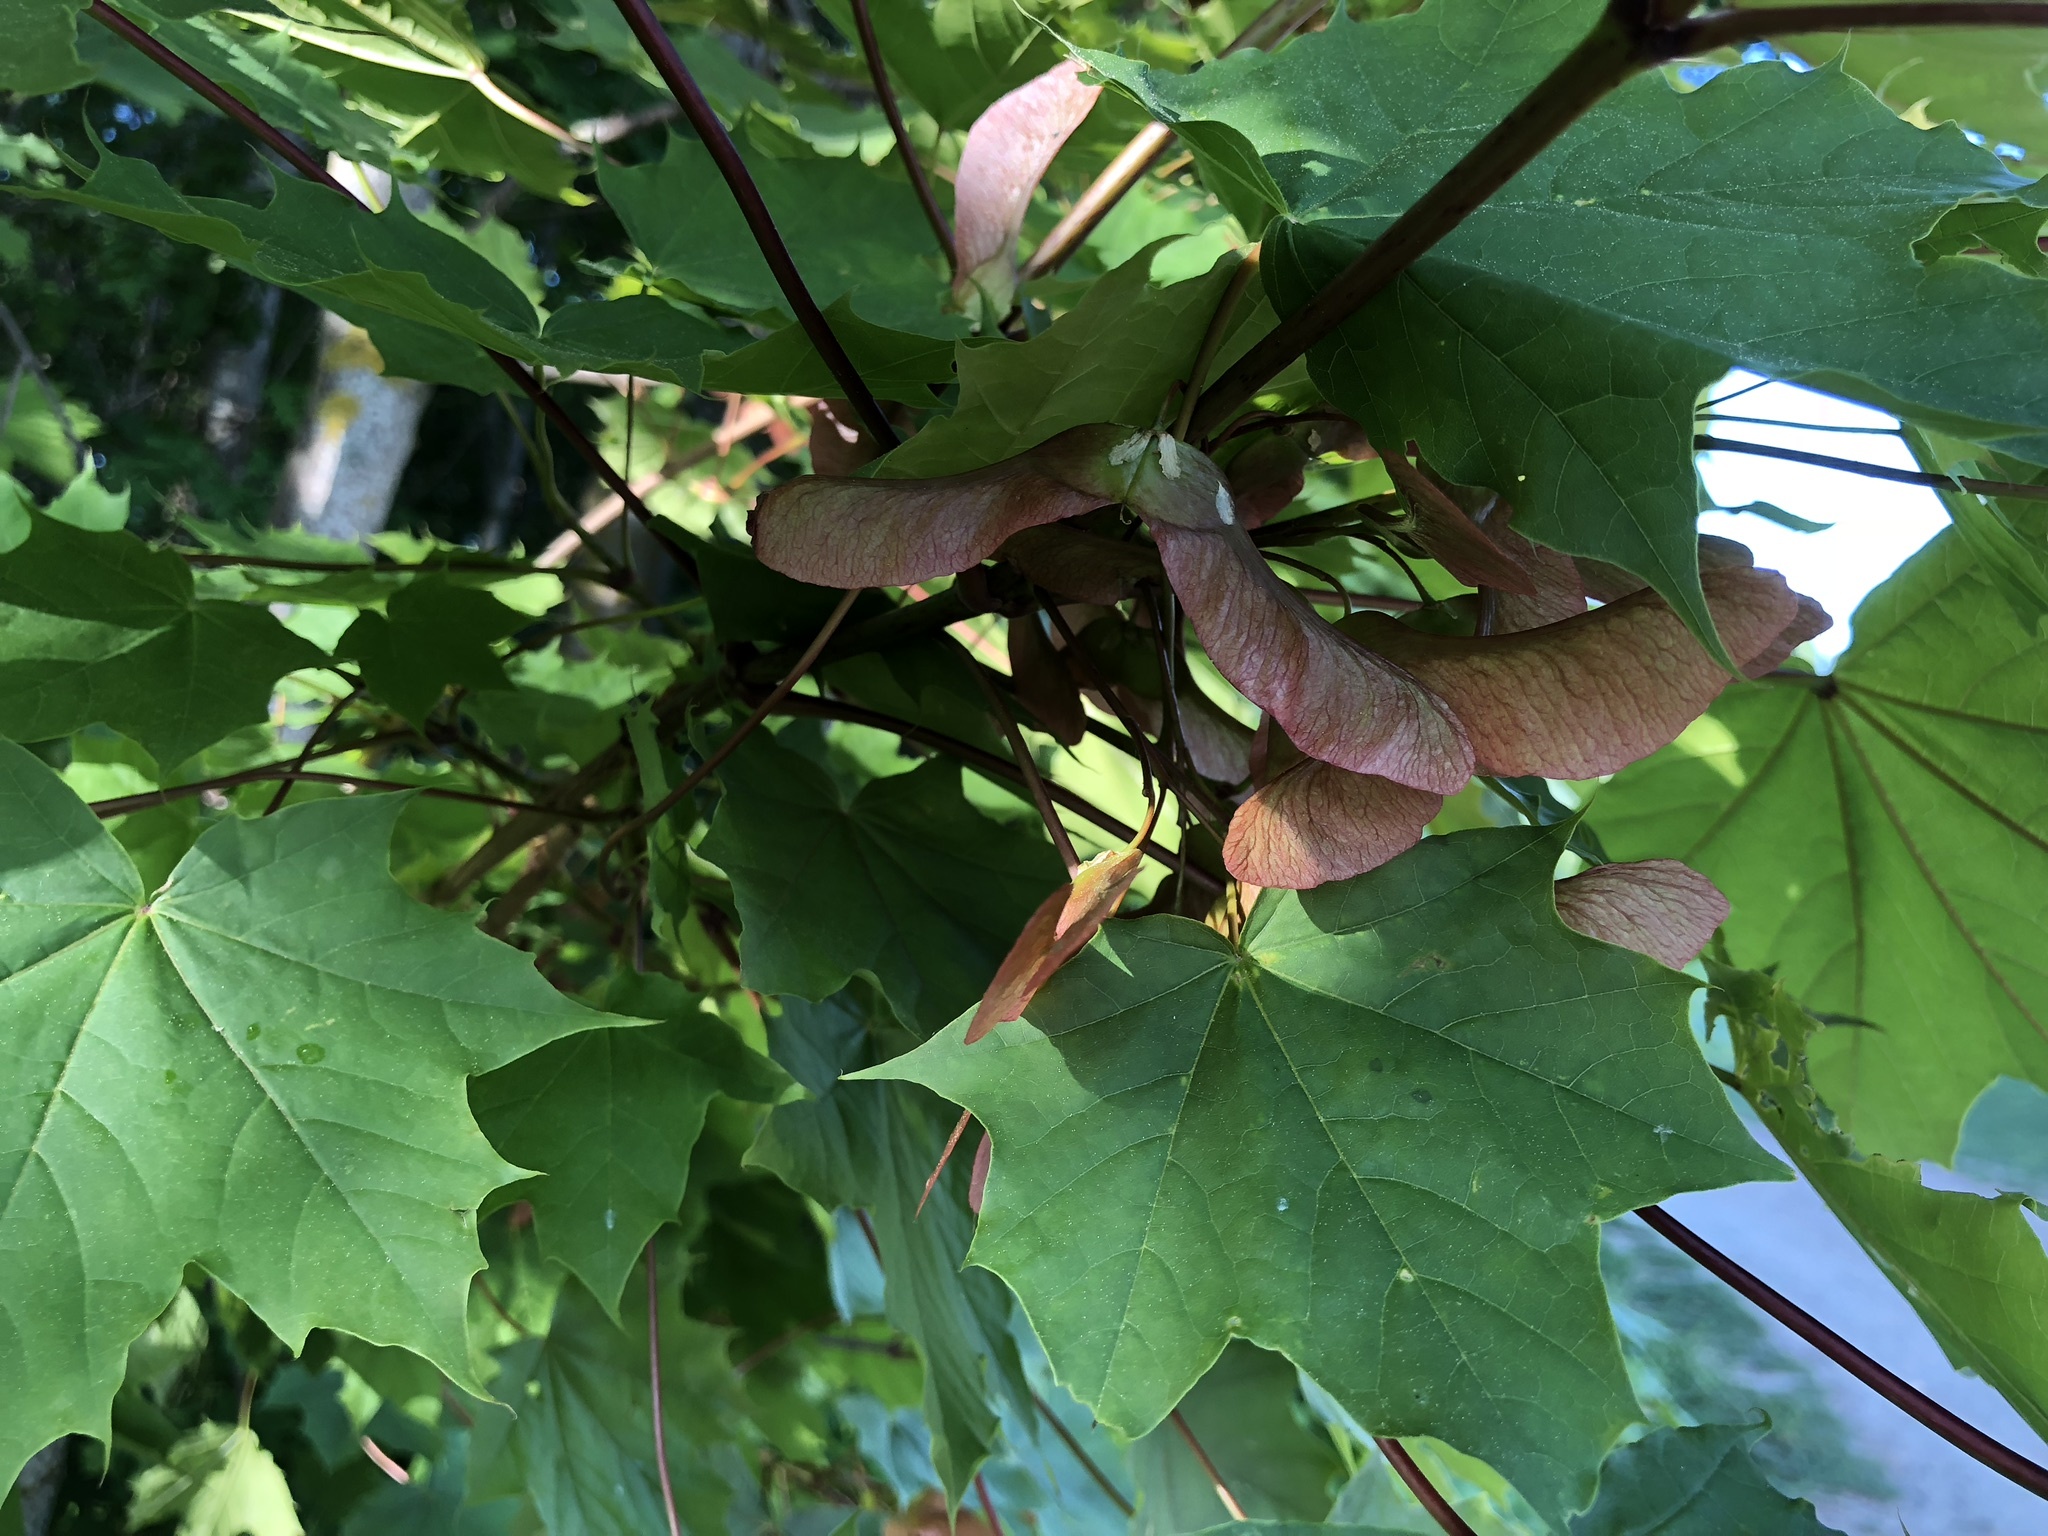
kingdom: Plantae
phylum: Tracheophyta
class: Magnoliopsida
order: Sapindales
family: Sapindaceae
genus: Acer
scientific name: Acer platanoides
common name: Norway maple
